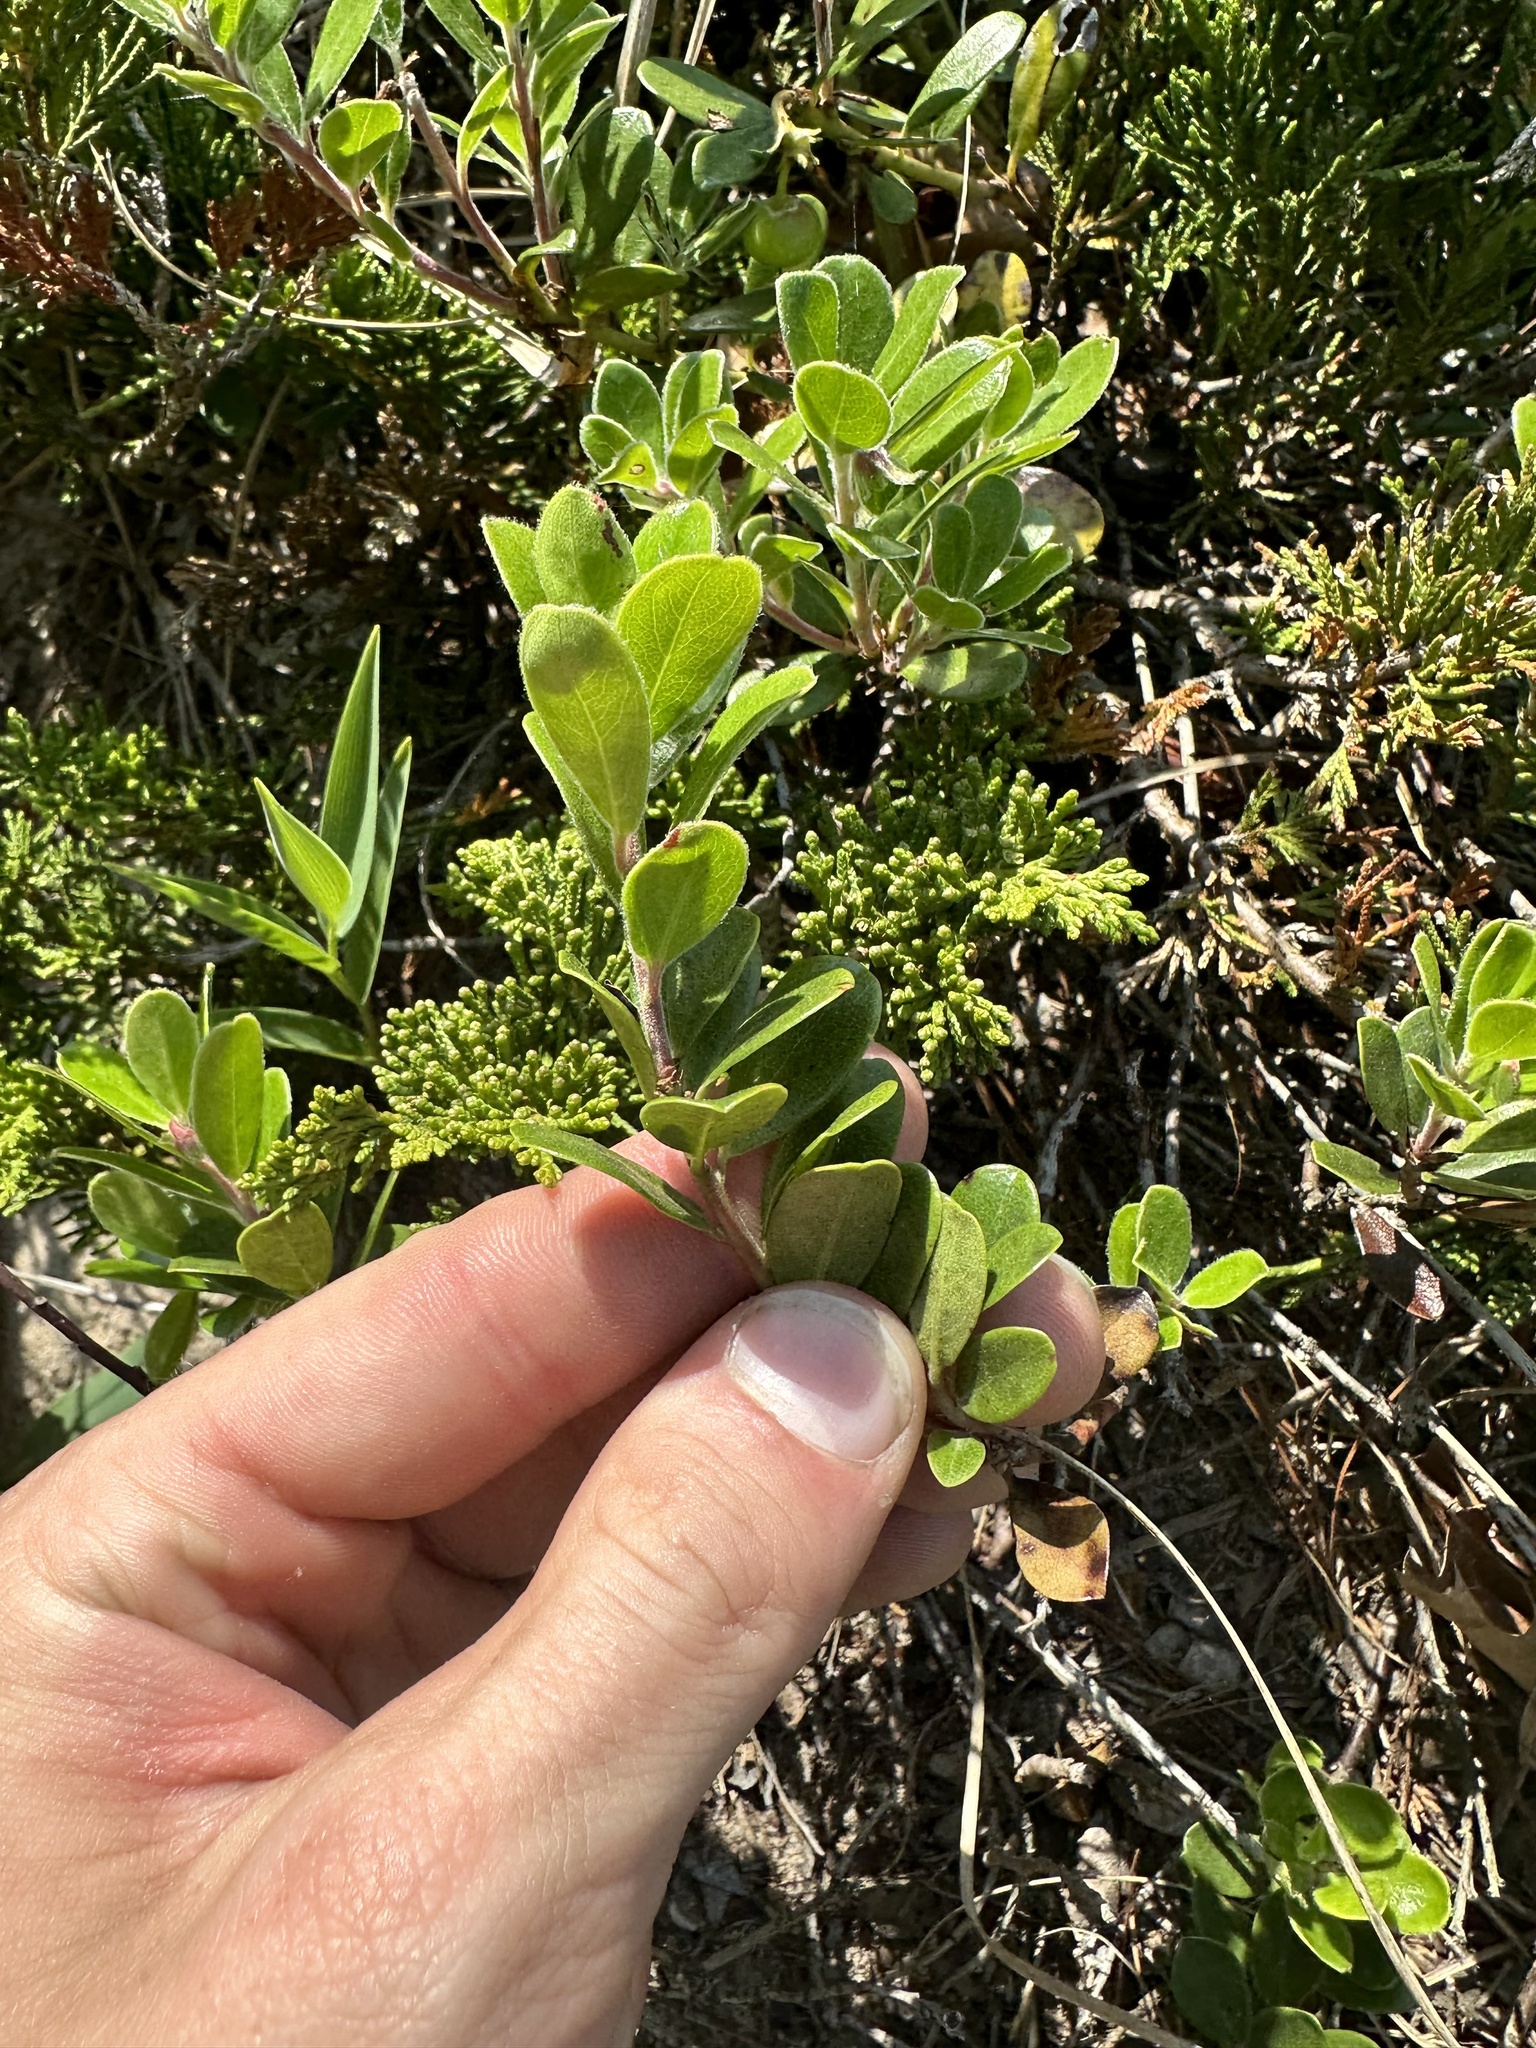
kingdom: Plantae
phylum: Tracheophyta
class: Magnoliopsida
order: Ericales
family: Ericaceae
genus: Arctostaphylos
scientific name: Arctostaphylos uva-ursi
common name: Bearberry
